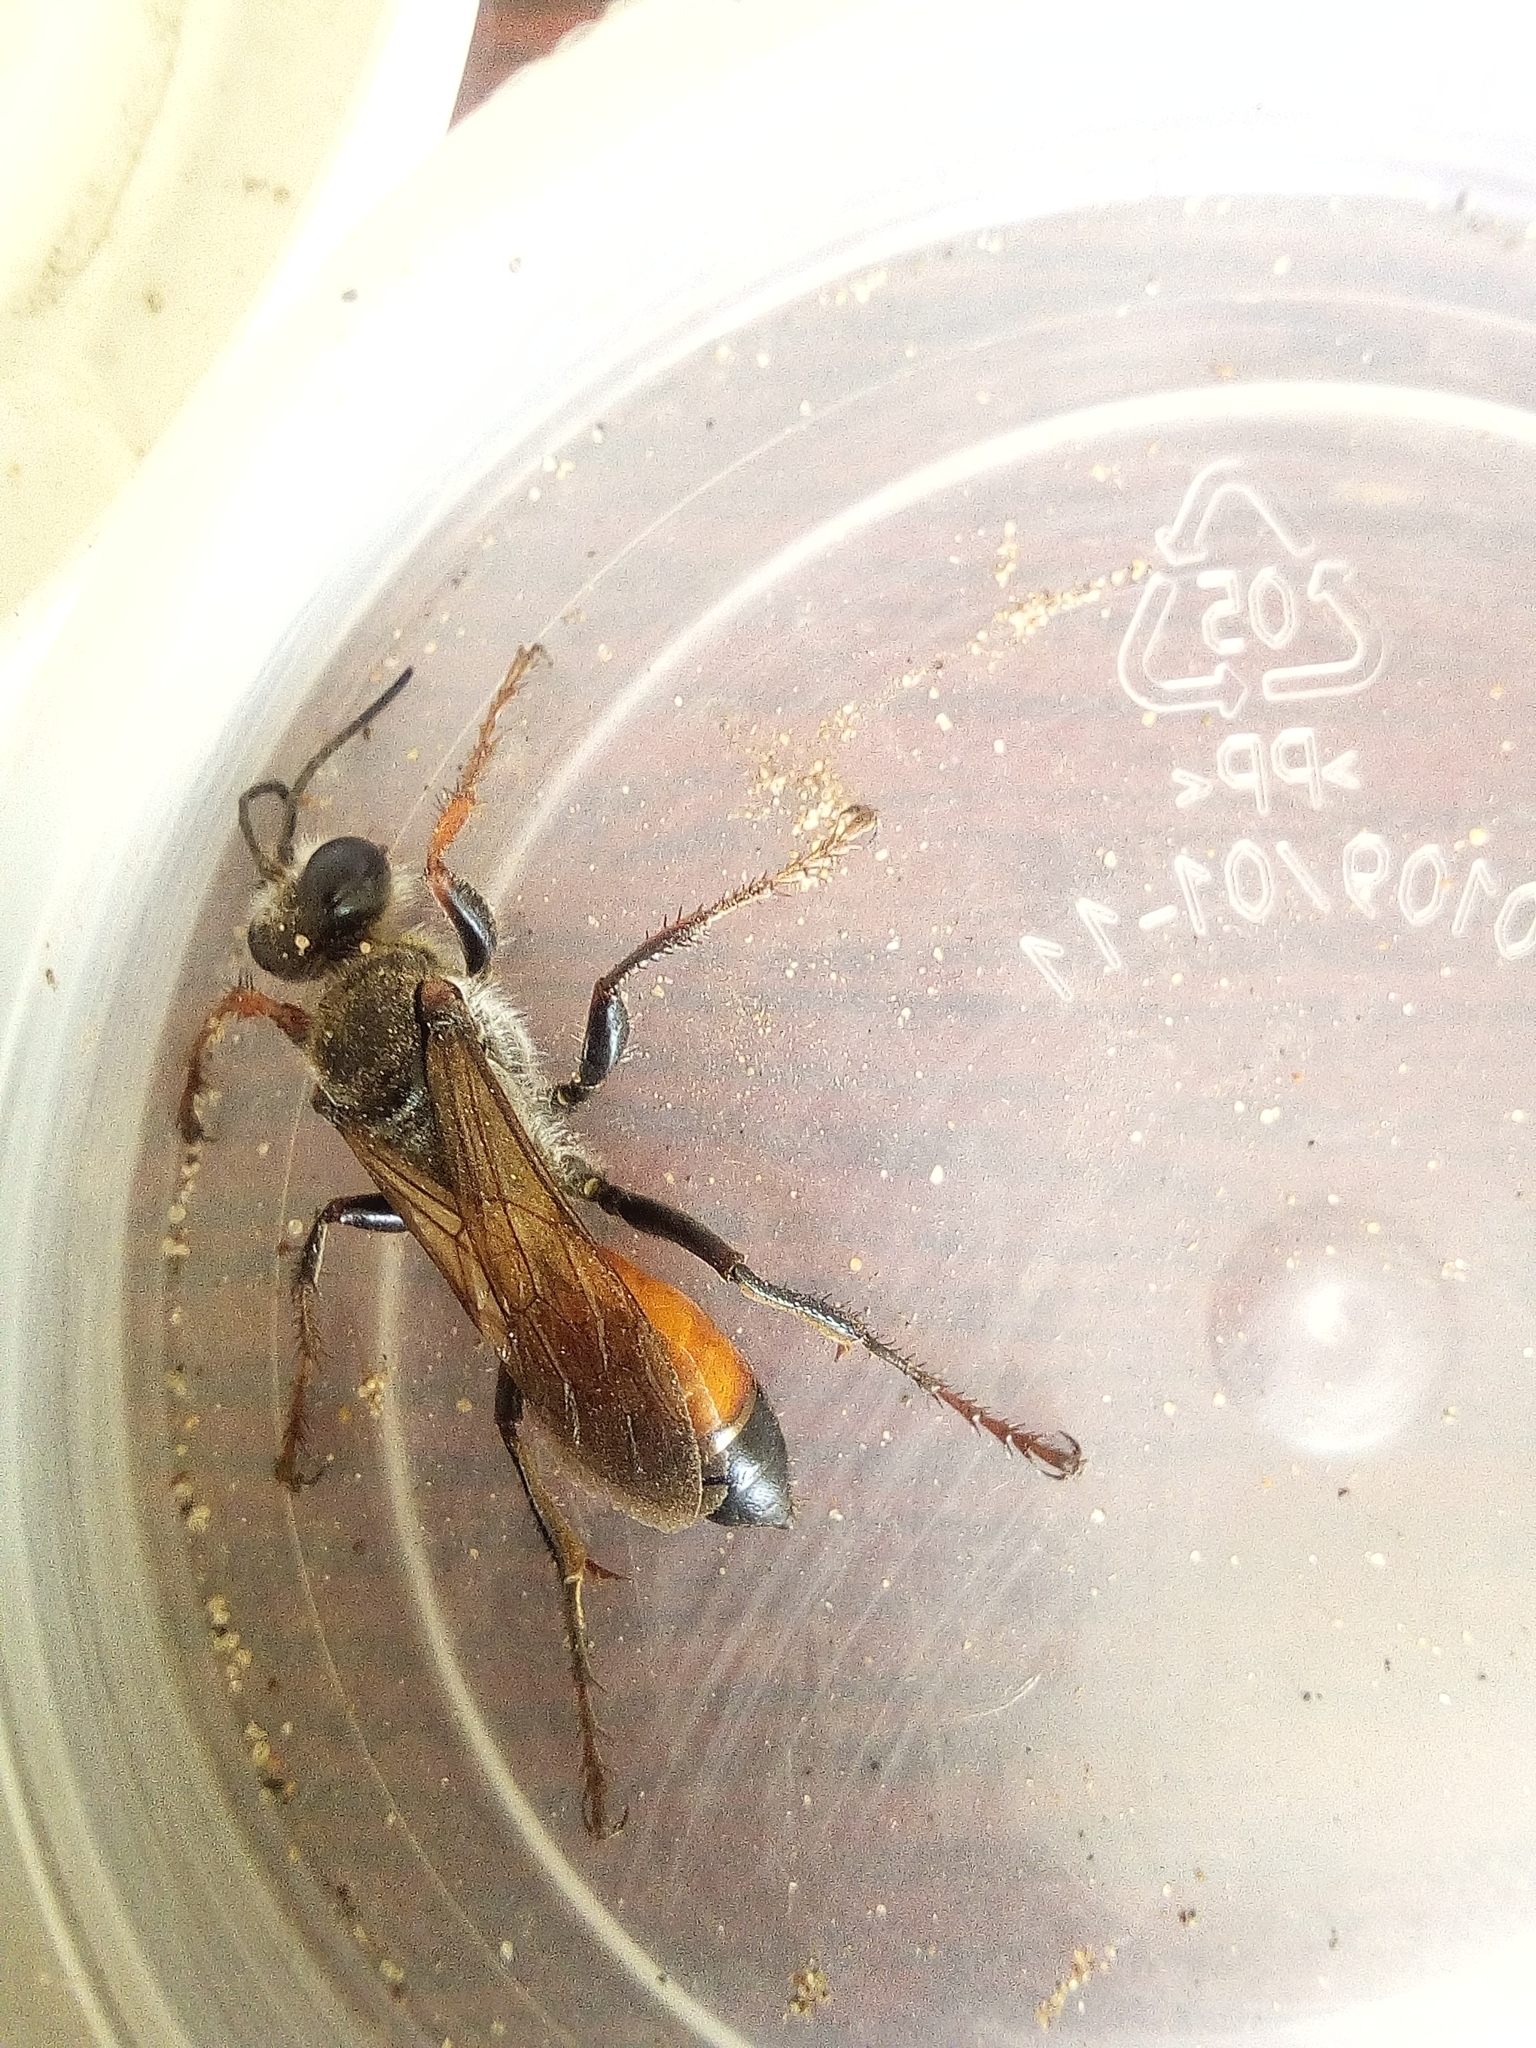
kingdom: Animalia
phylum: Arthropoda
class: Insecta
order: Hymenoptera
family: Sphecidae
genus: Sphex
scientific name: Sphex funerarius
